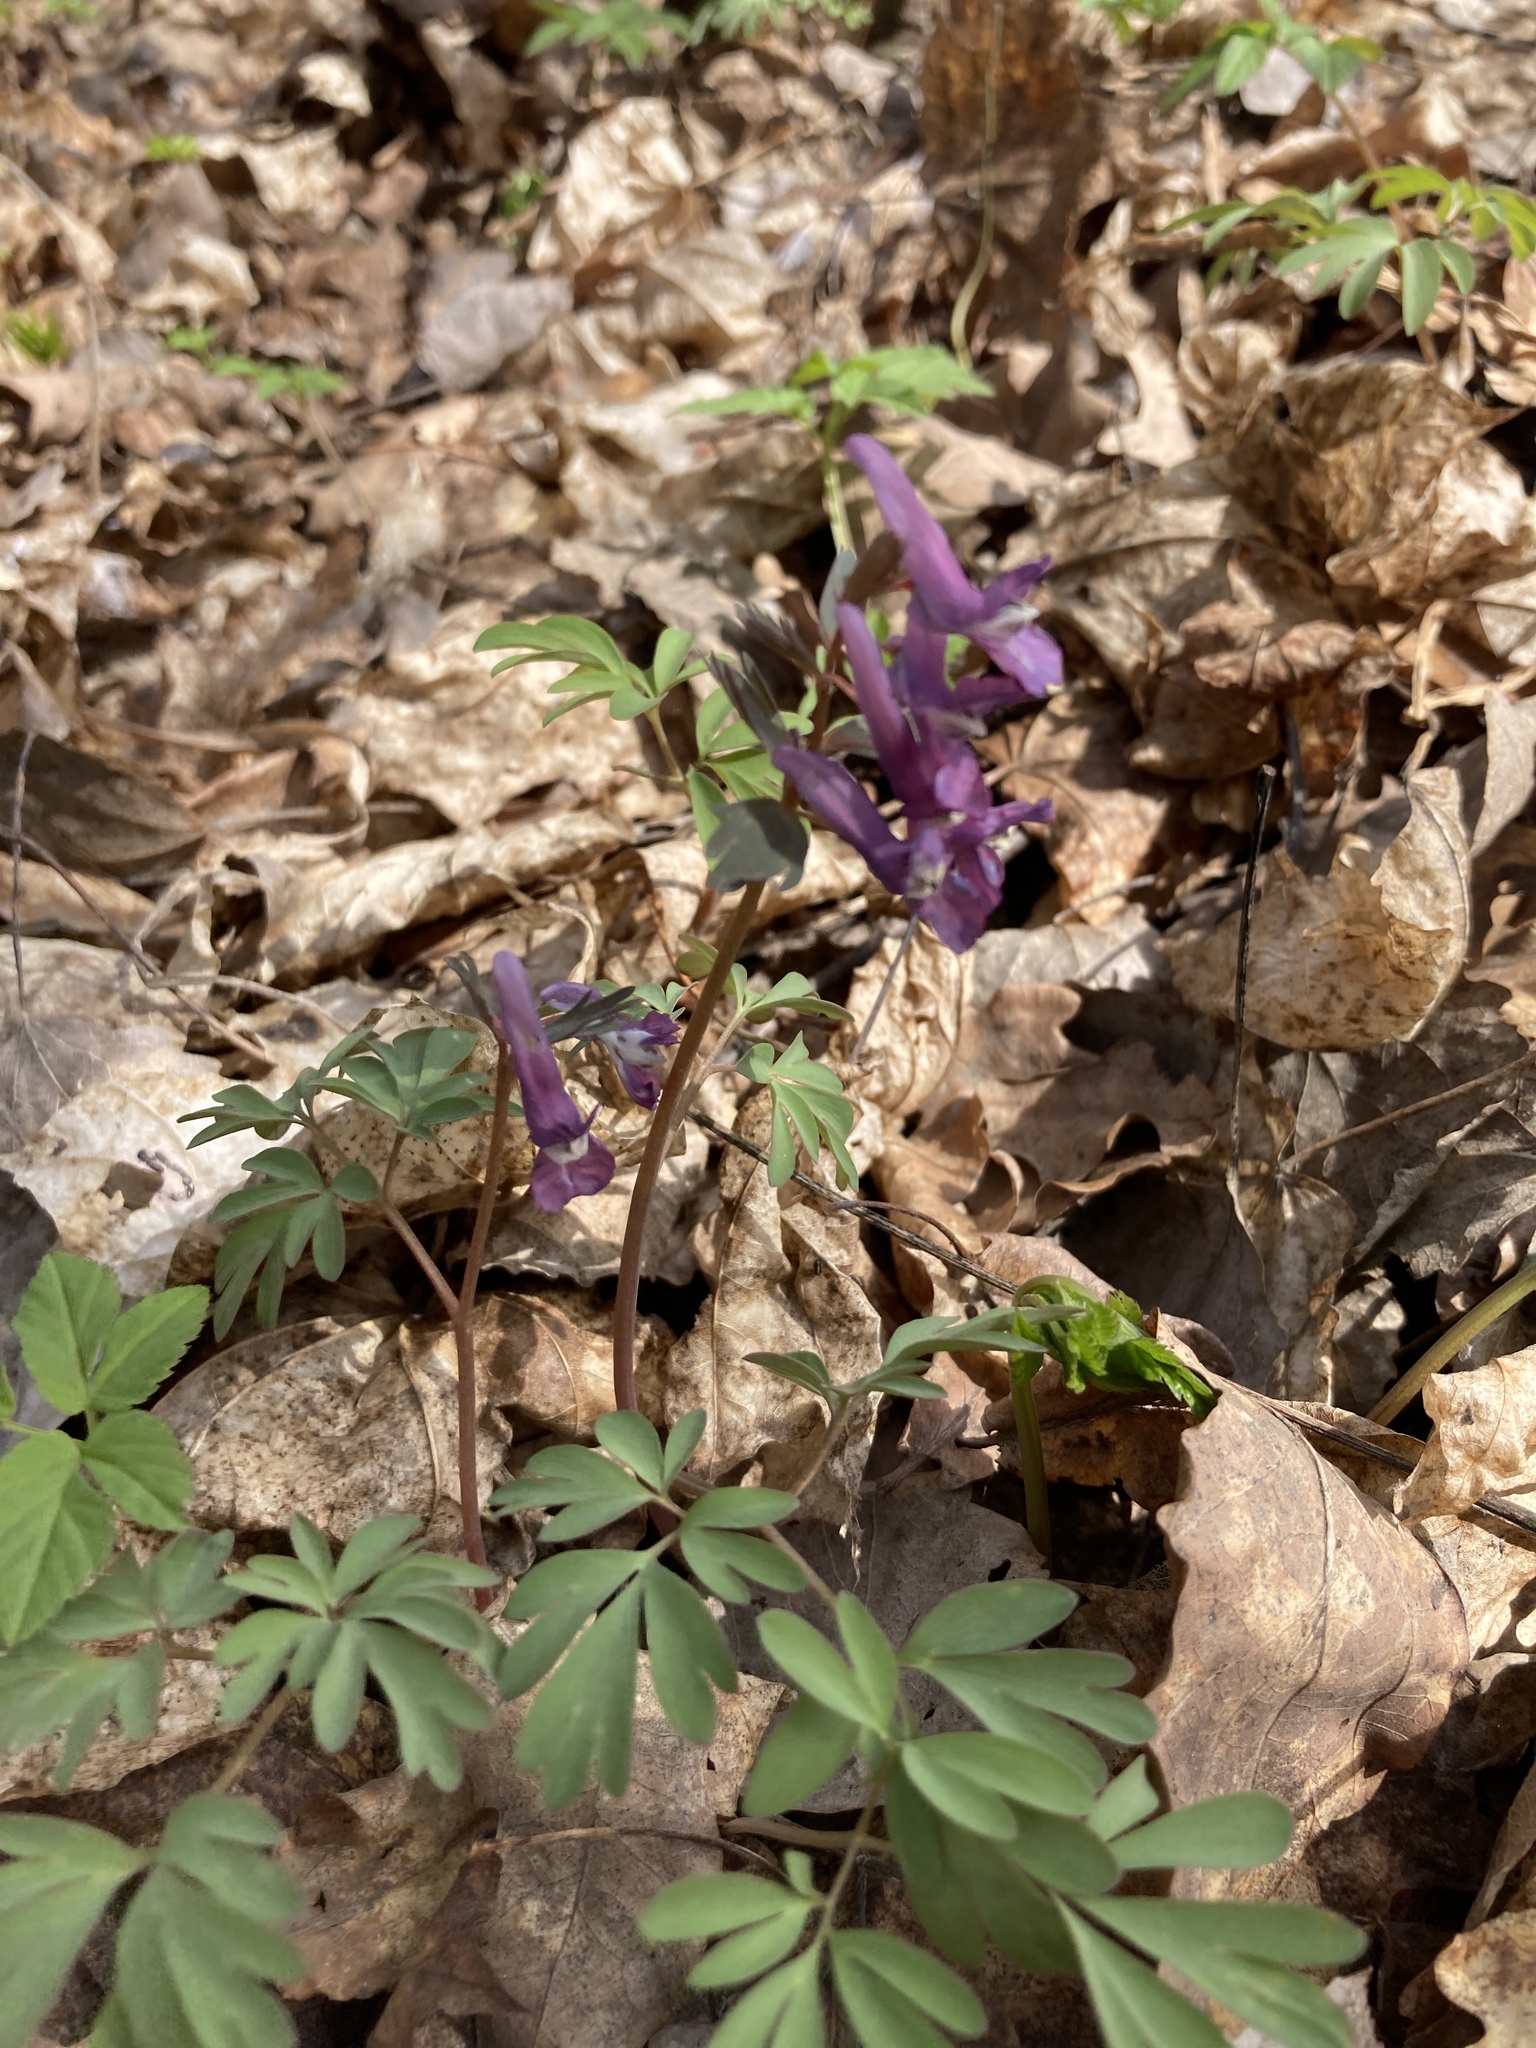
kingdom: Plantae
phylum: Tracheophyta
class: Magnoliopsida
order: Ranunculales
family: Papaveraceae
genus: Corydalis
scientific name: Corydalis solida
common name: Bird-in-a-bush
